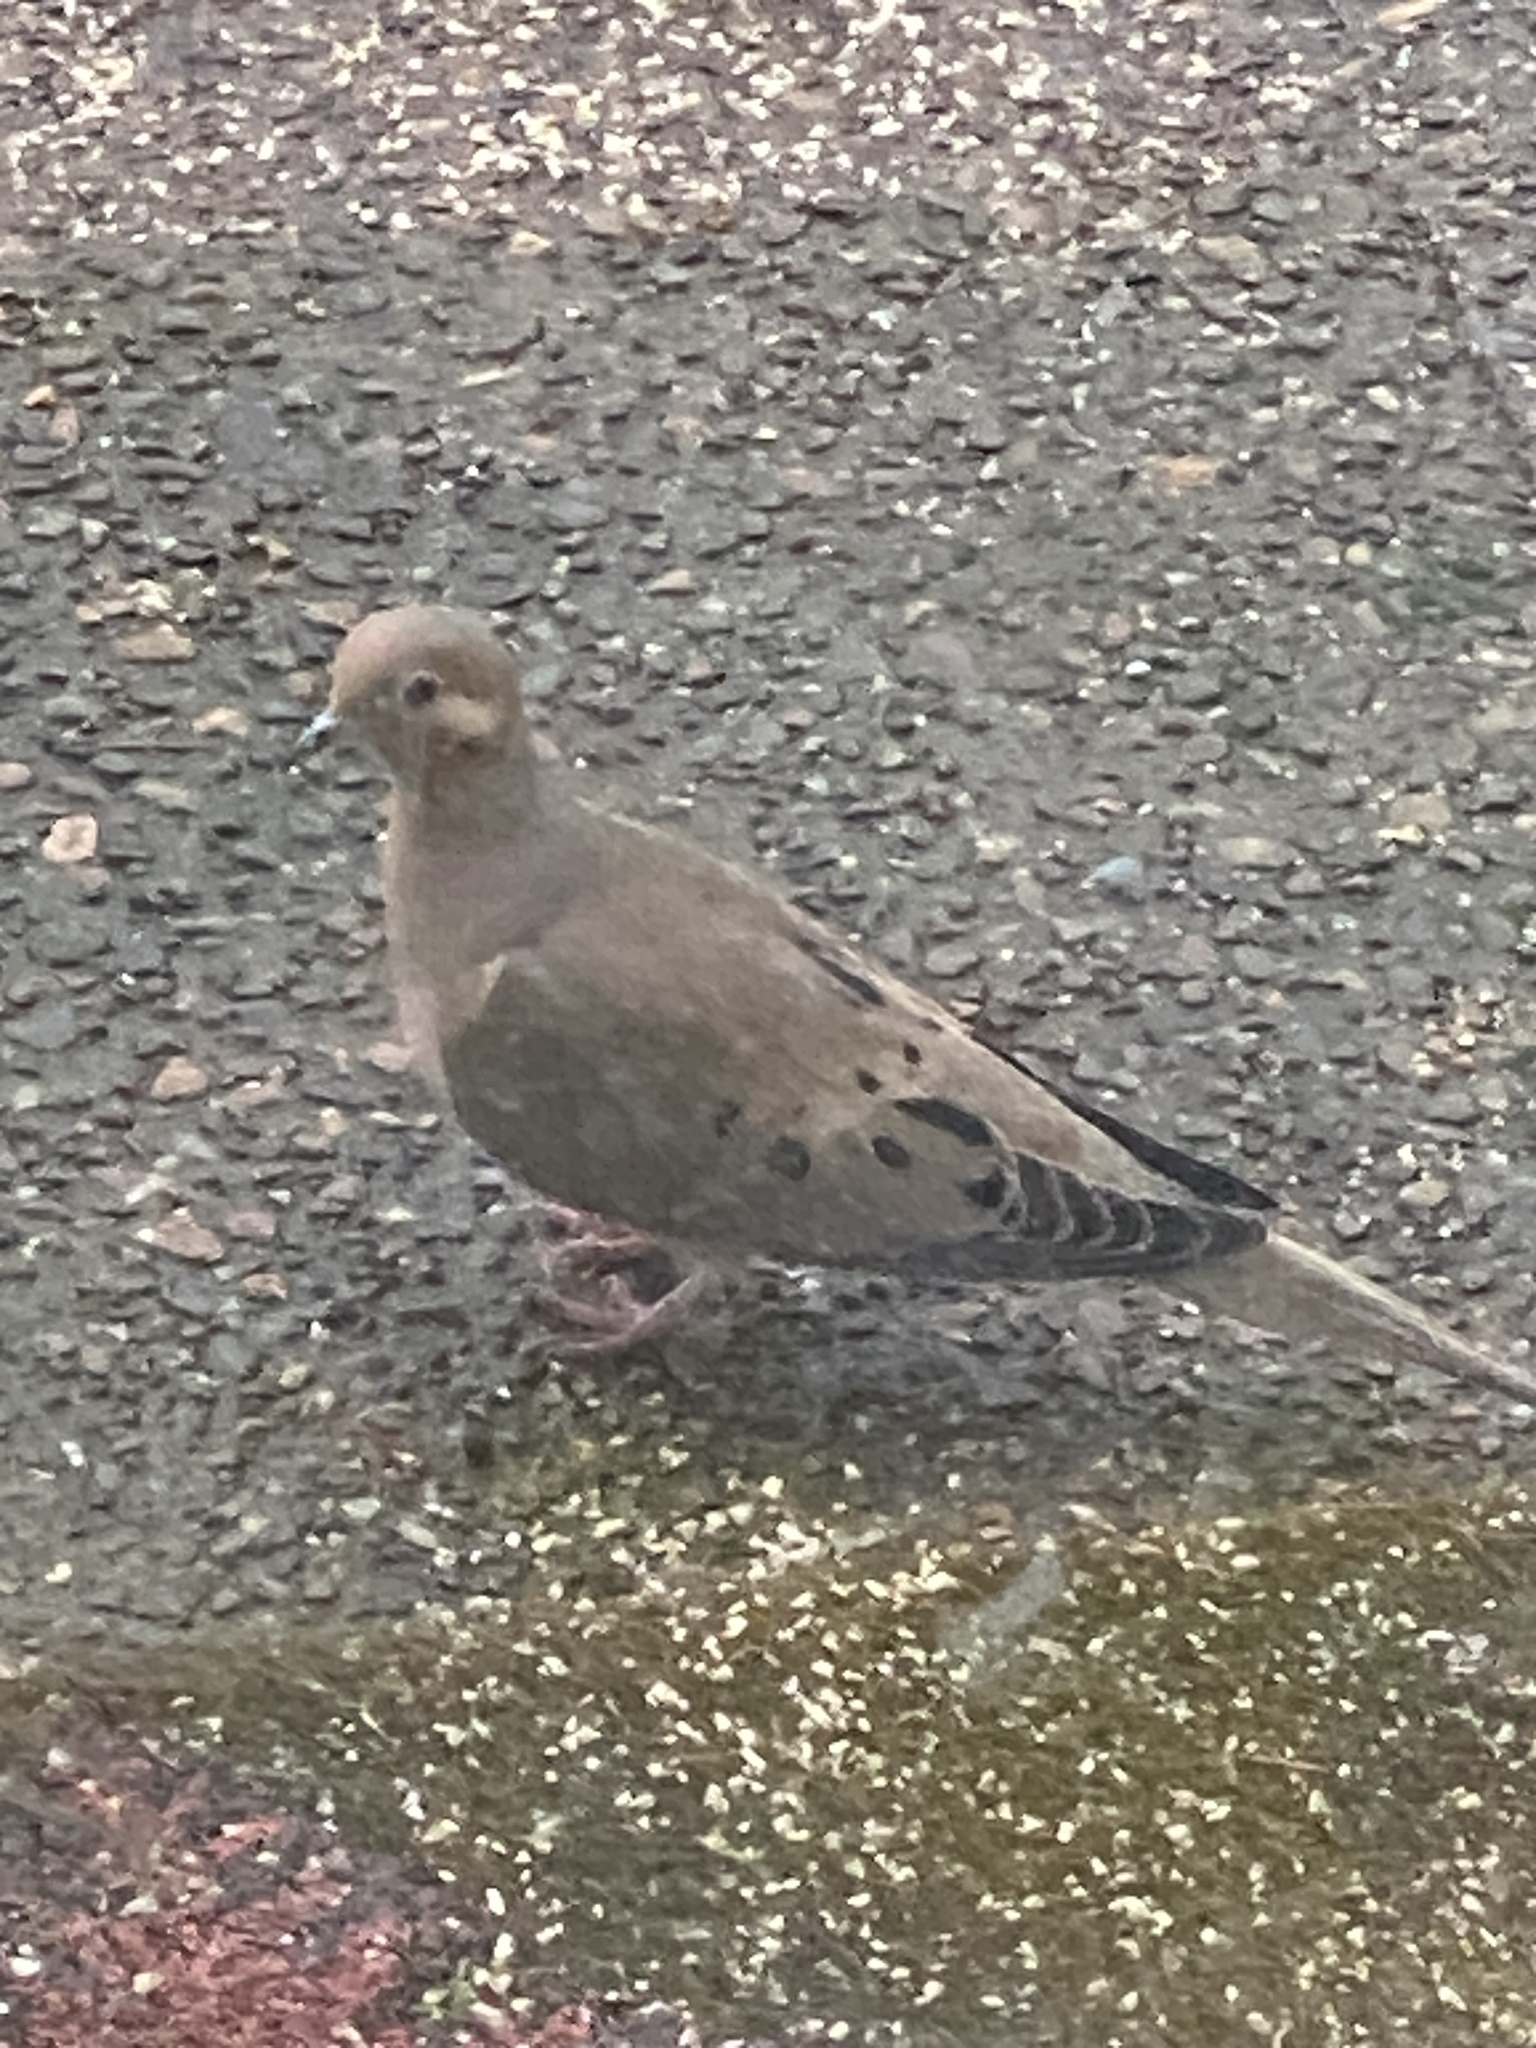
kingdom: Animalia
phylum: Chordata
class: Aves
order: Columbiformes
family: Columbidae
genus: Zenaida
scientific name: Zenaida macroura
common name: Mourning dove
